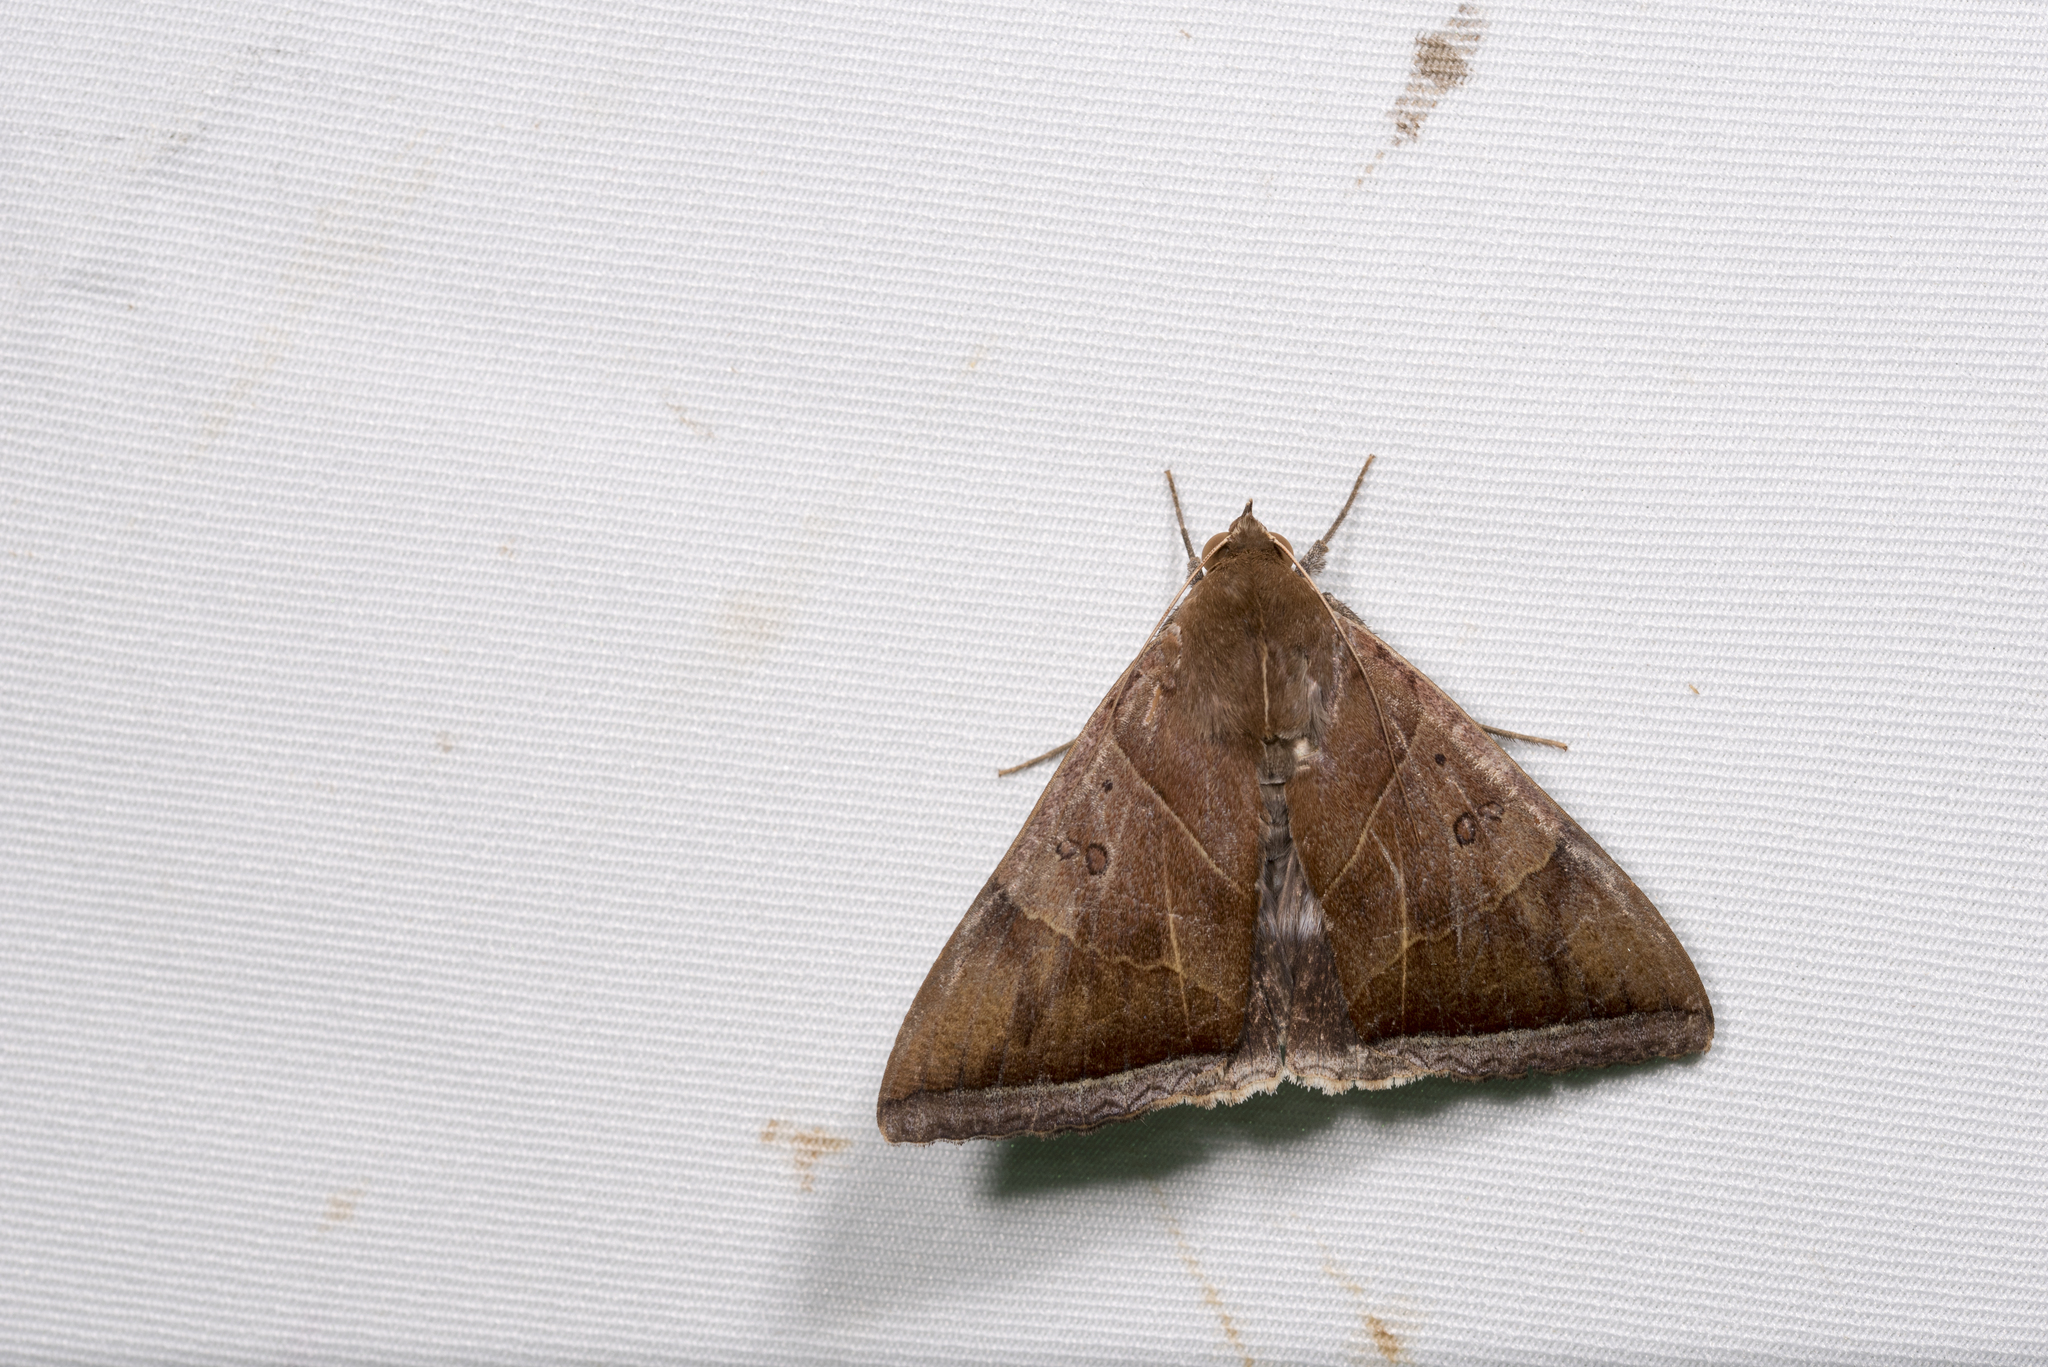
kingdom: Animalia
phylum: Arthropoda
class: Insecta
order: Lepidoptera
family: Erebidae
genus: Artena
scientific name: Artena dotata
